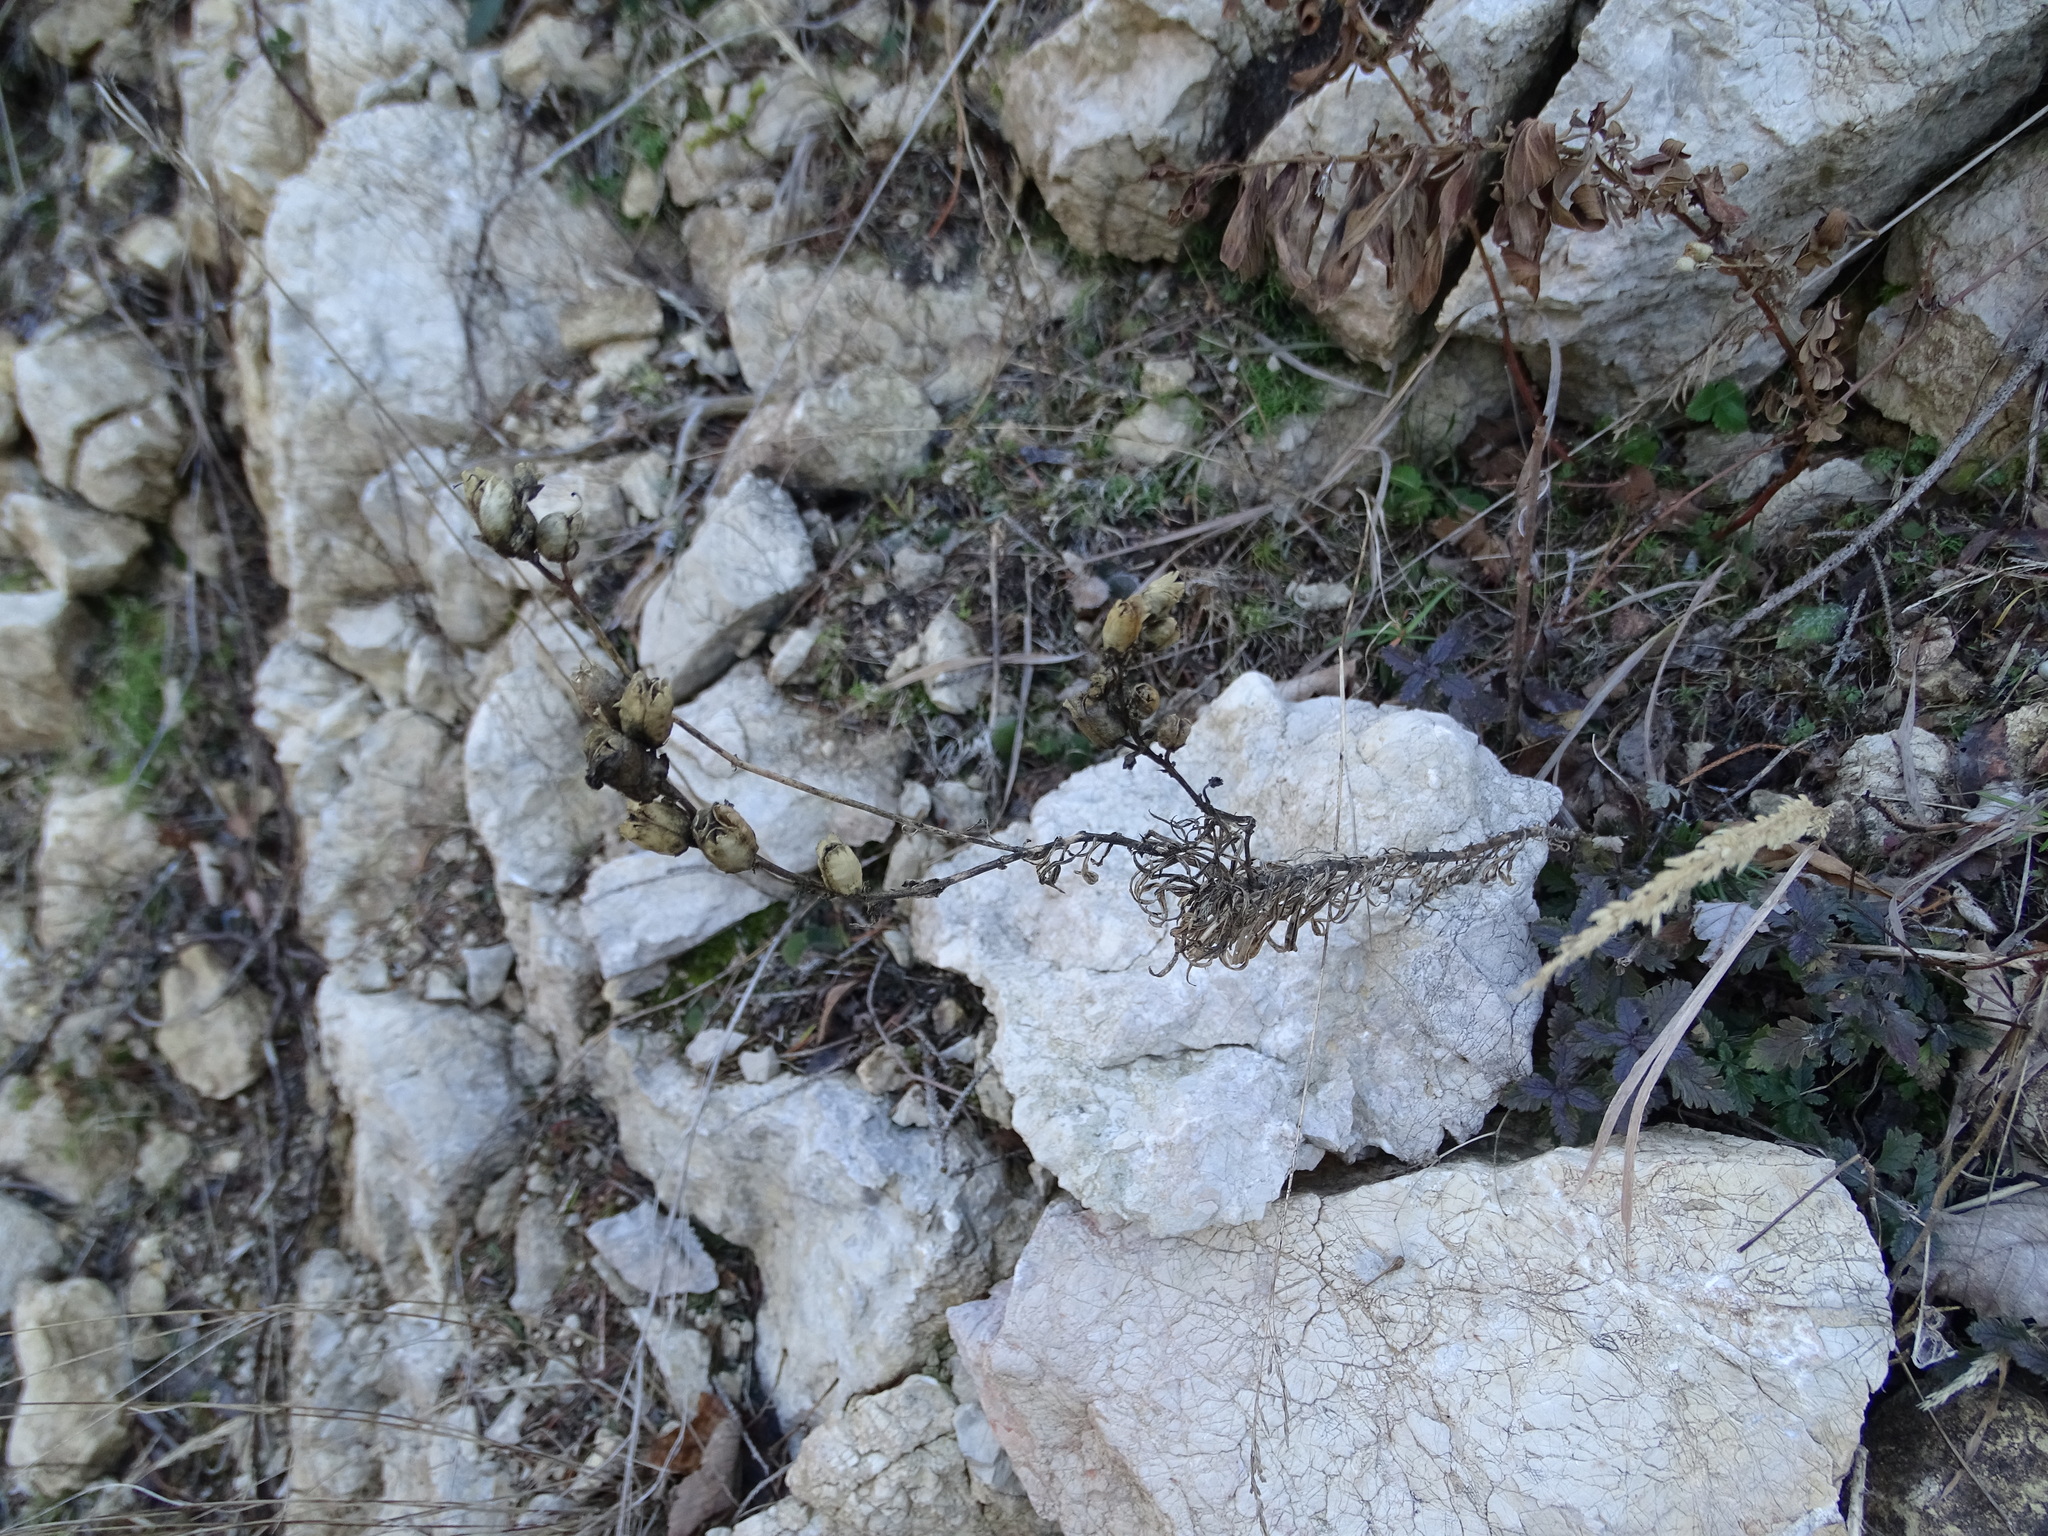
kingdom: Plantae
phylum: Tracheophyta
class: Magnoliopsida
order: Lamiales
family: Plantaginaceae
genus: Linaria
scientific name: Linaria vulgaris
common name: Butter and eggs
